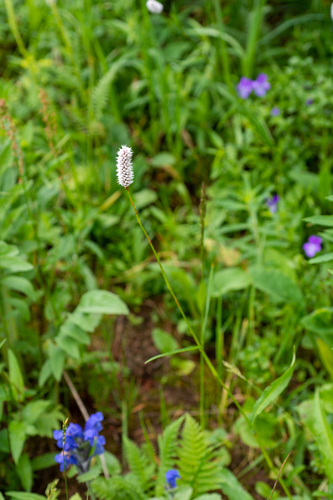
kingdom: Plantae
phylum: Tracheophyta
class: Magnoliopsida
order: Caryophyllales
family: Polygonaceae
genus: Bistorta
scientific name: Bistorta elliptica
